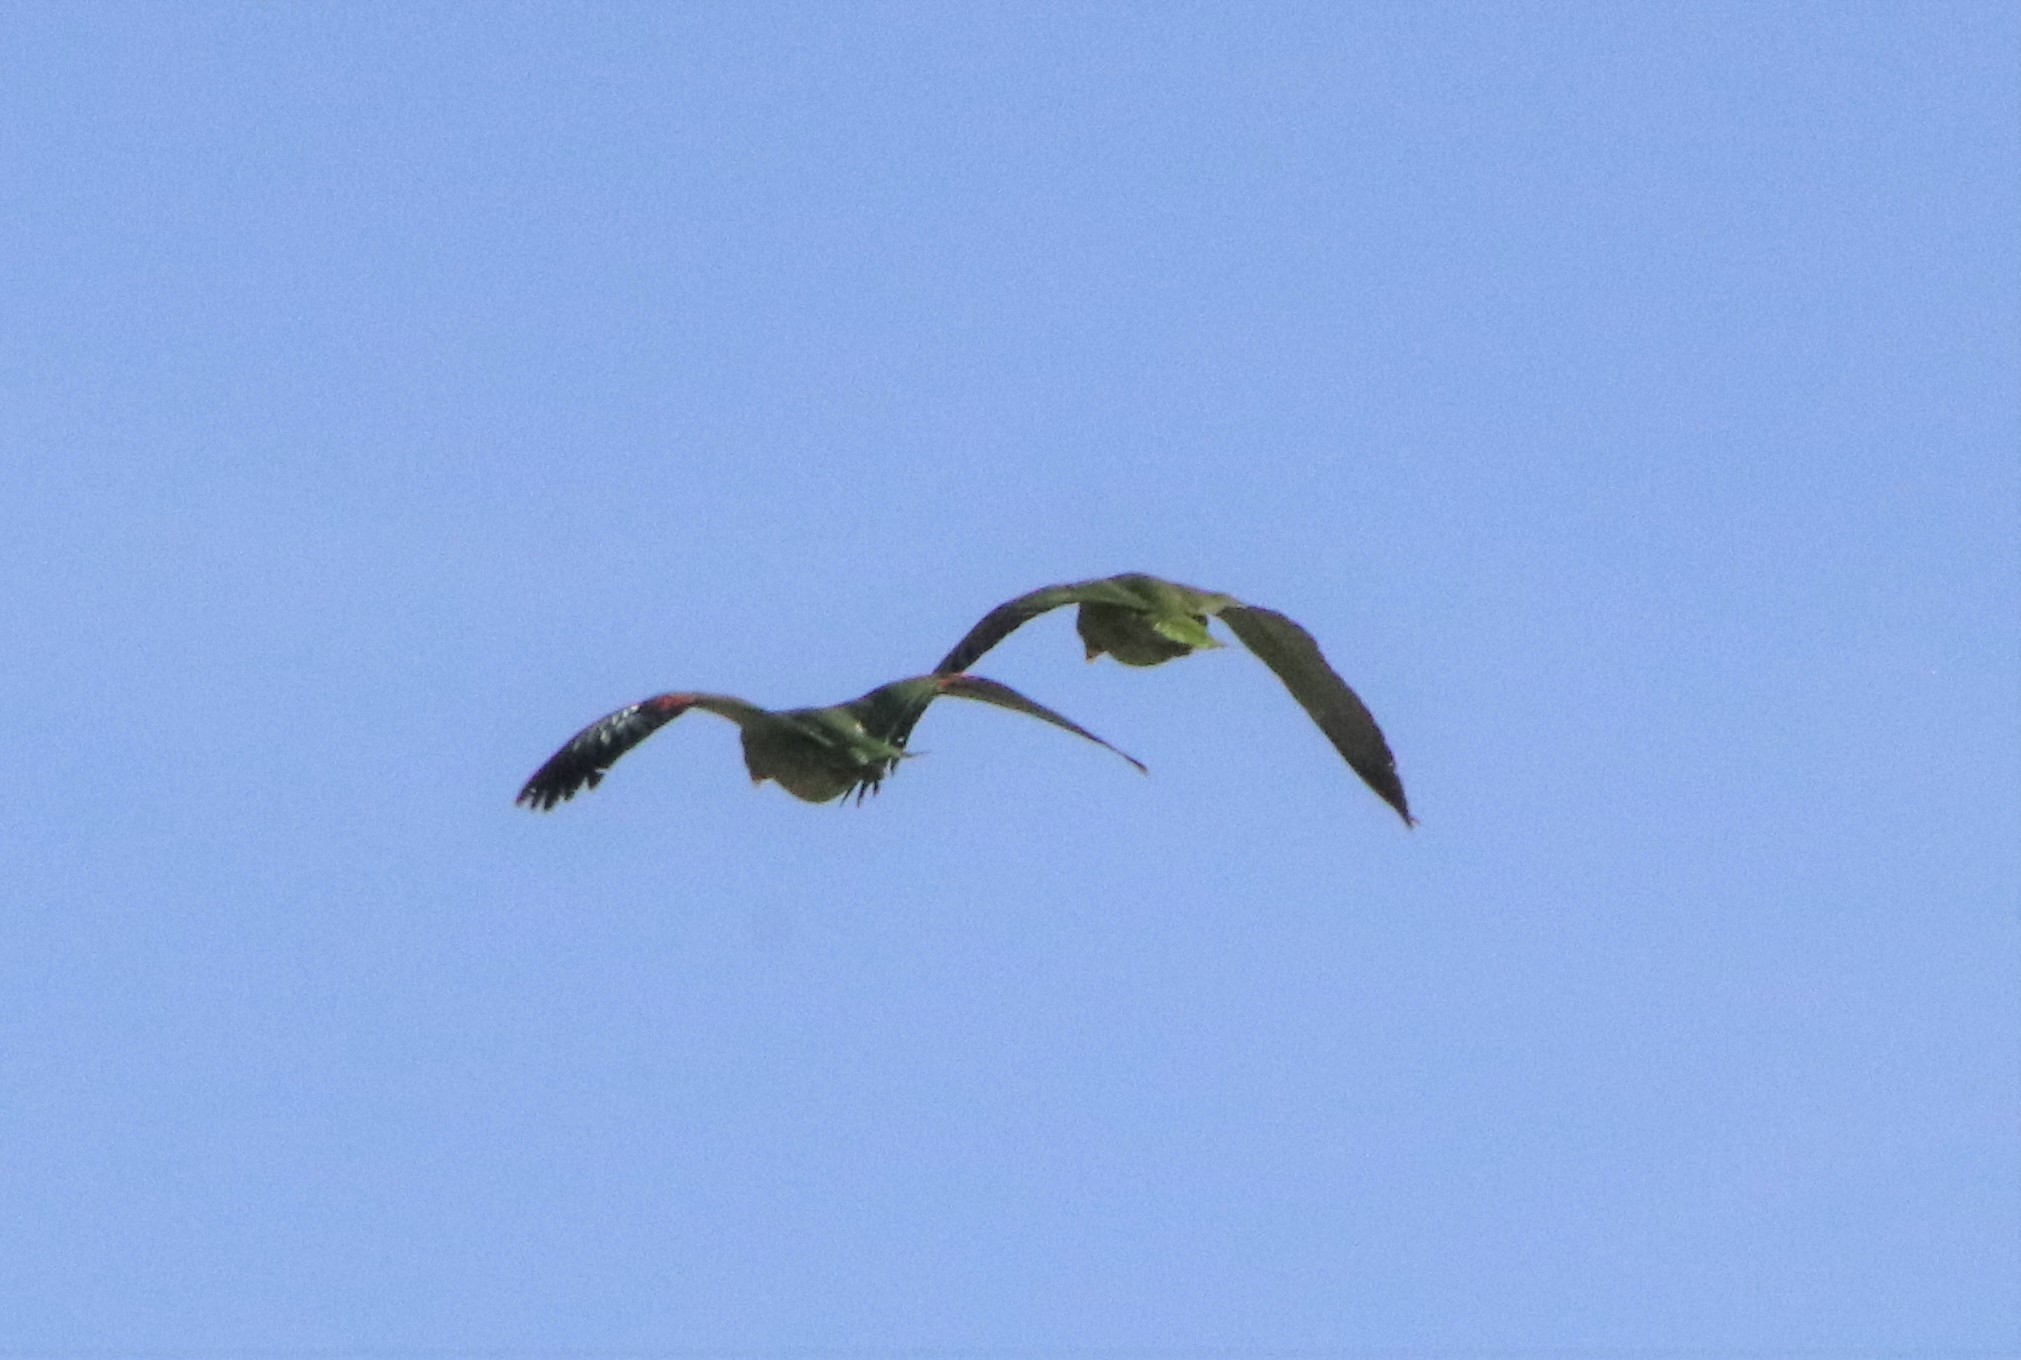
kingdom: Animalia
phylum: Chordata
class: Aves
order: Psittaciformes
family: Psittacidae
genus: Amazona
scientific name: Amazona
